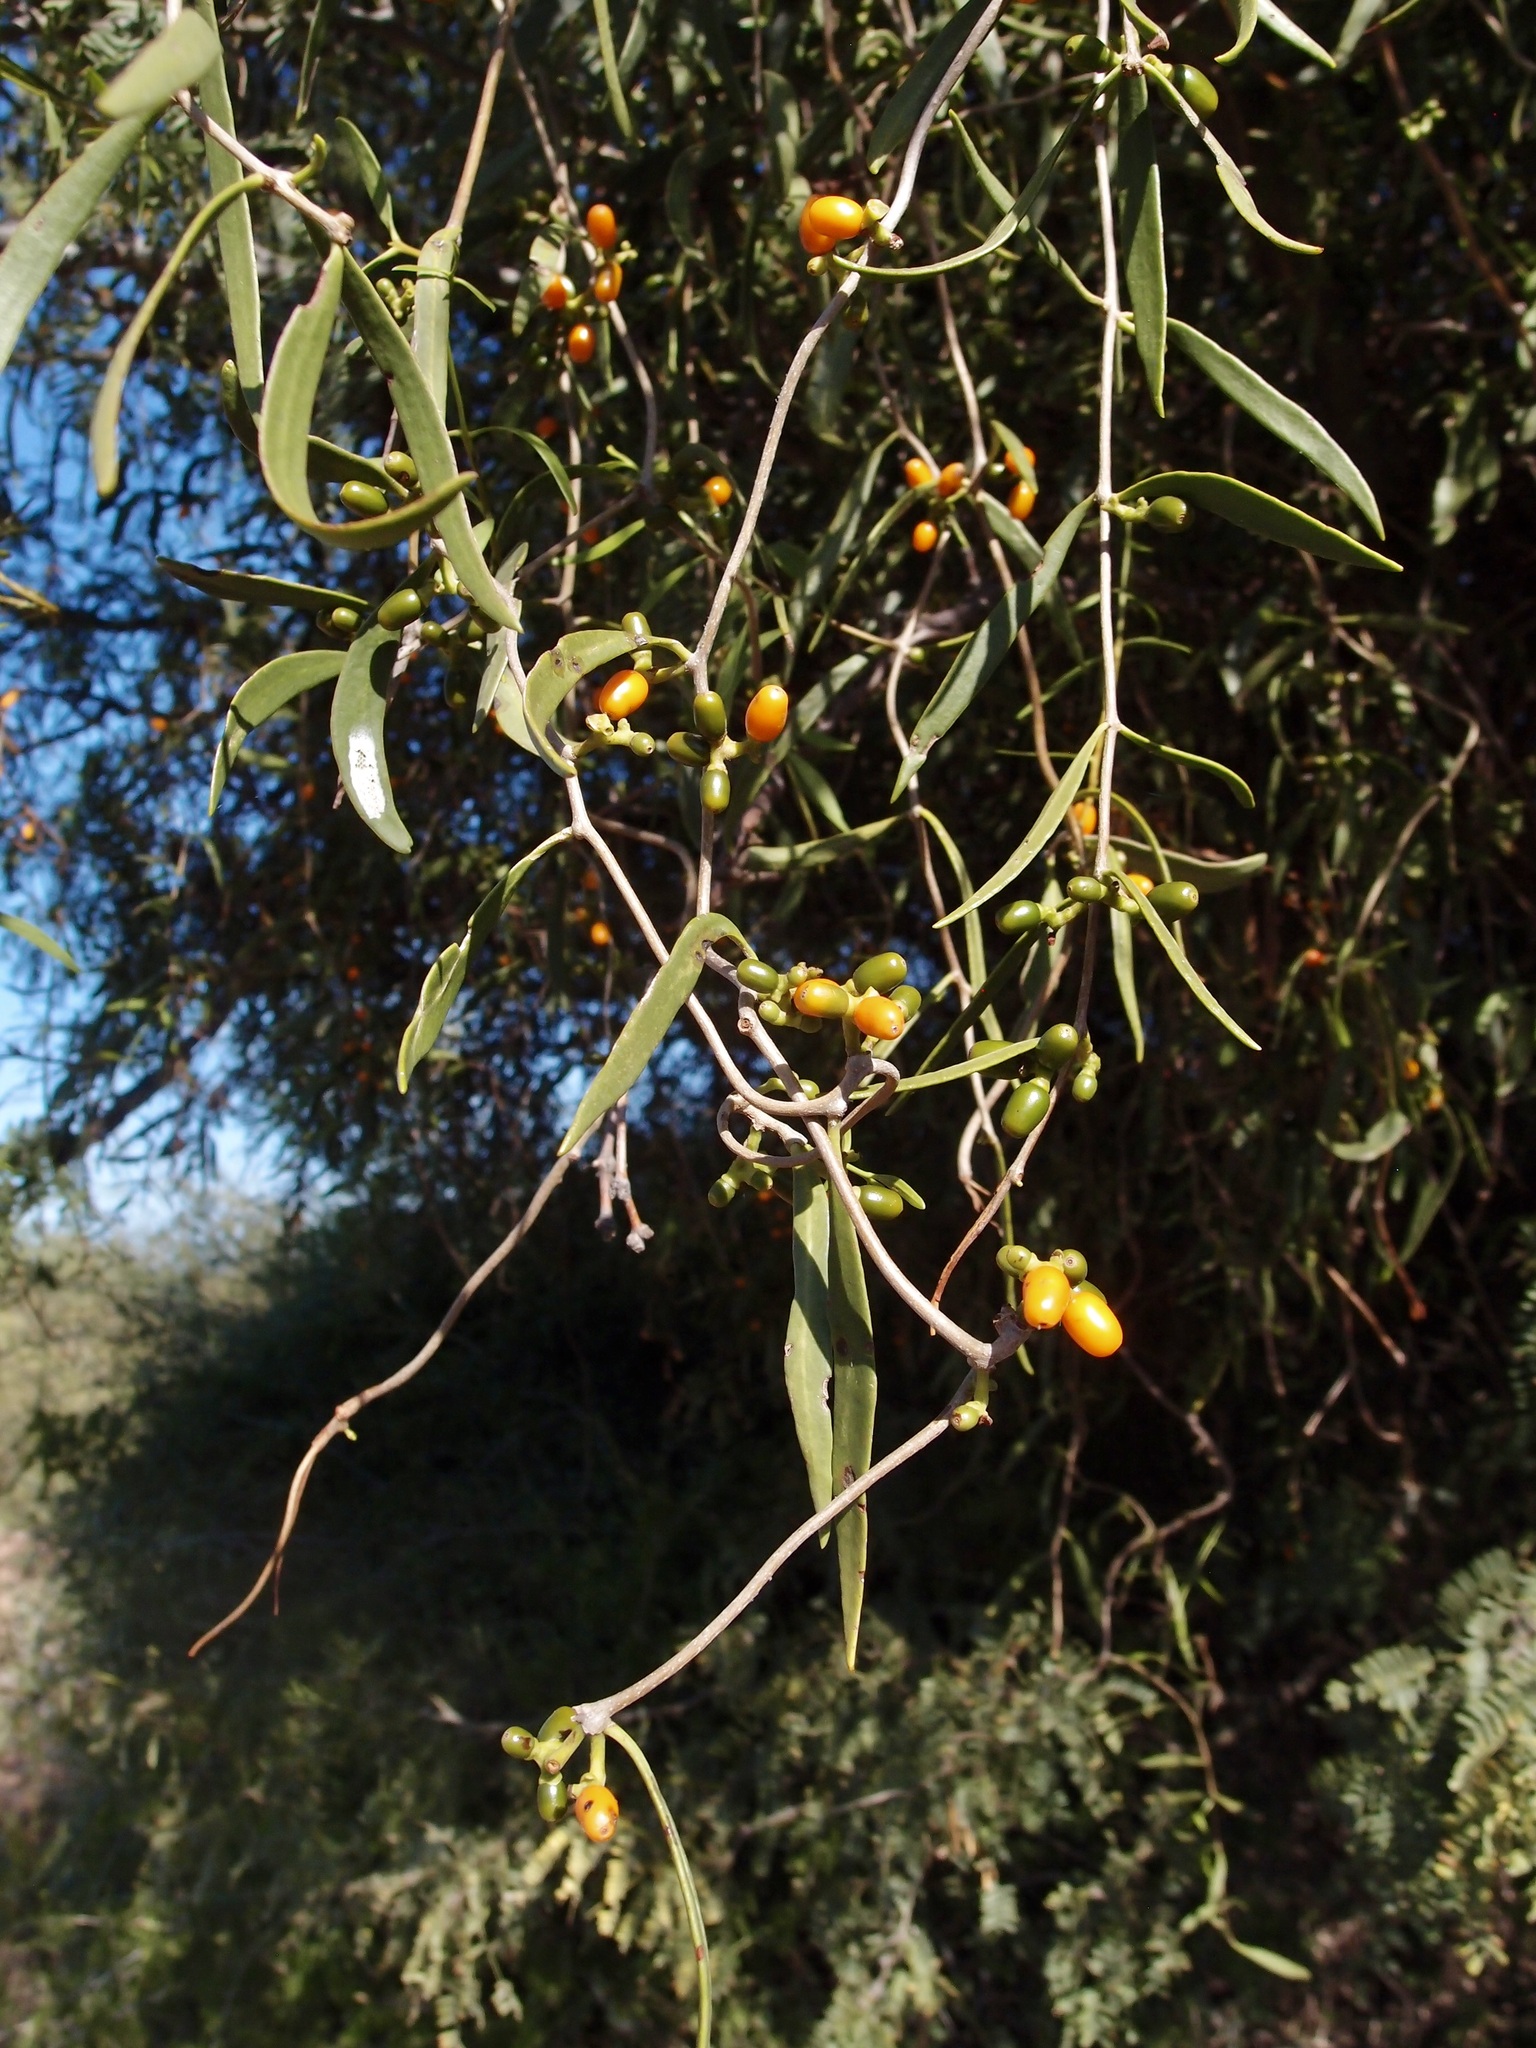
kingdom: Plantae
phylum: Tracheophyta
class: Magnoliopsida
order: Santalales
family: Loranthaceae
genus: Struthanthus
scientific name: Struthanthus palmeri
